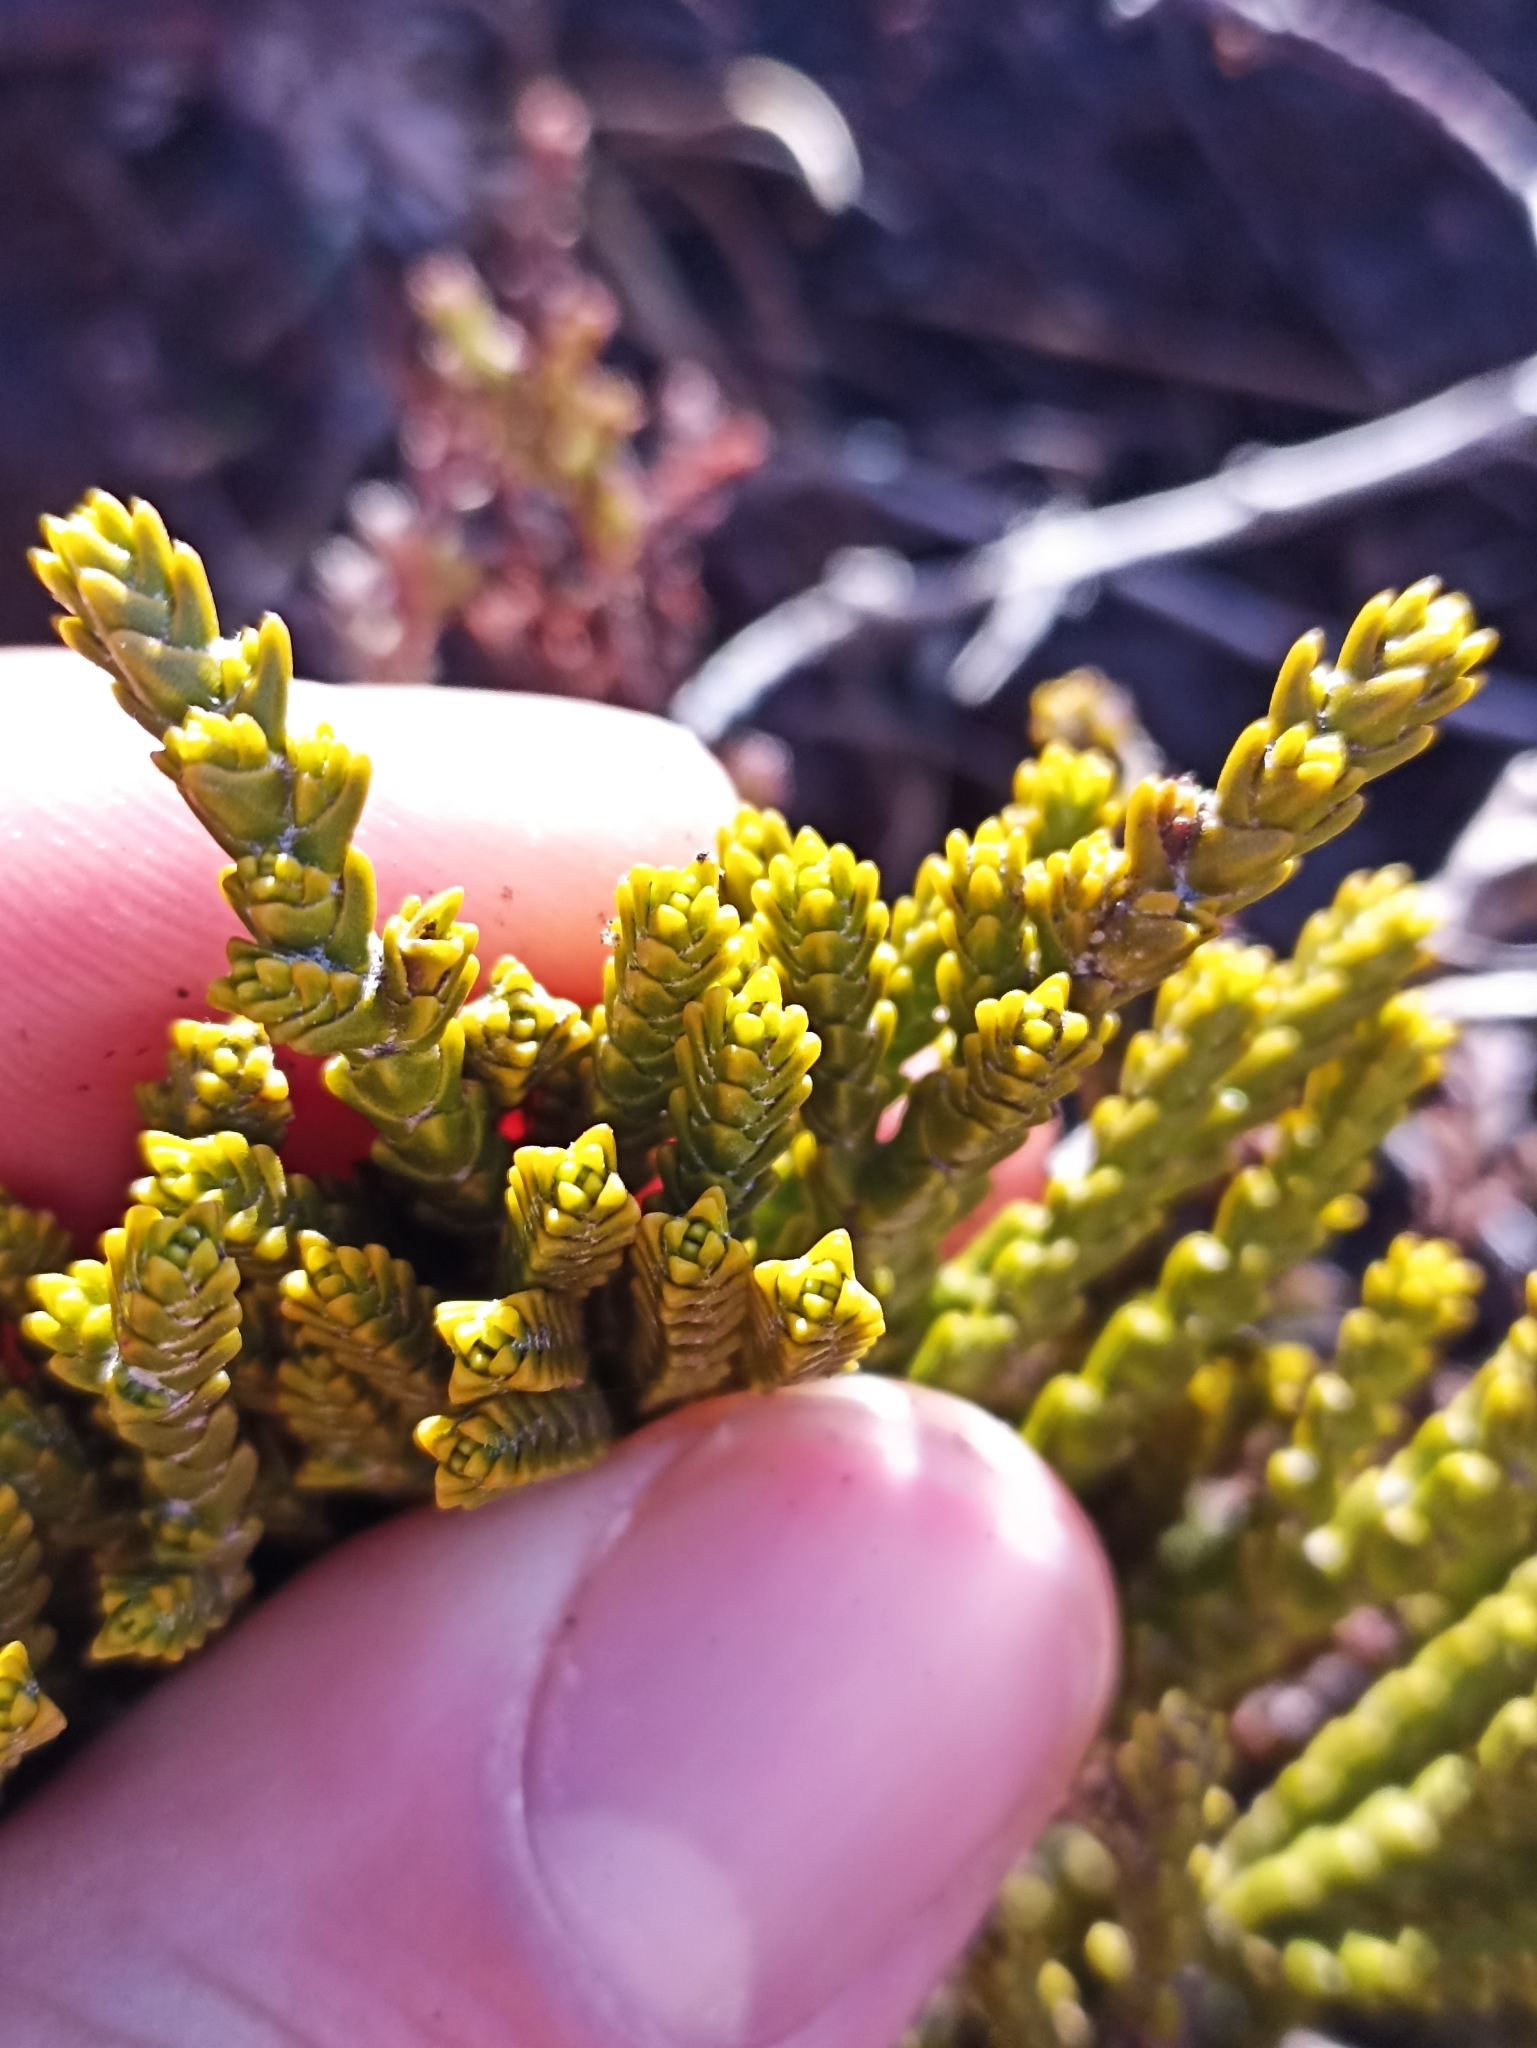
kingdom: Plantae
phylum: Tracheophyta
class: Magnoliopsida
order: Lamiales
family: Plantaginaceae
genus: Veronica
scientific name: Veronica tetragona
